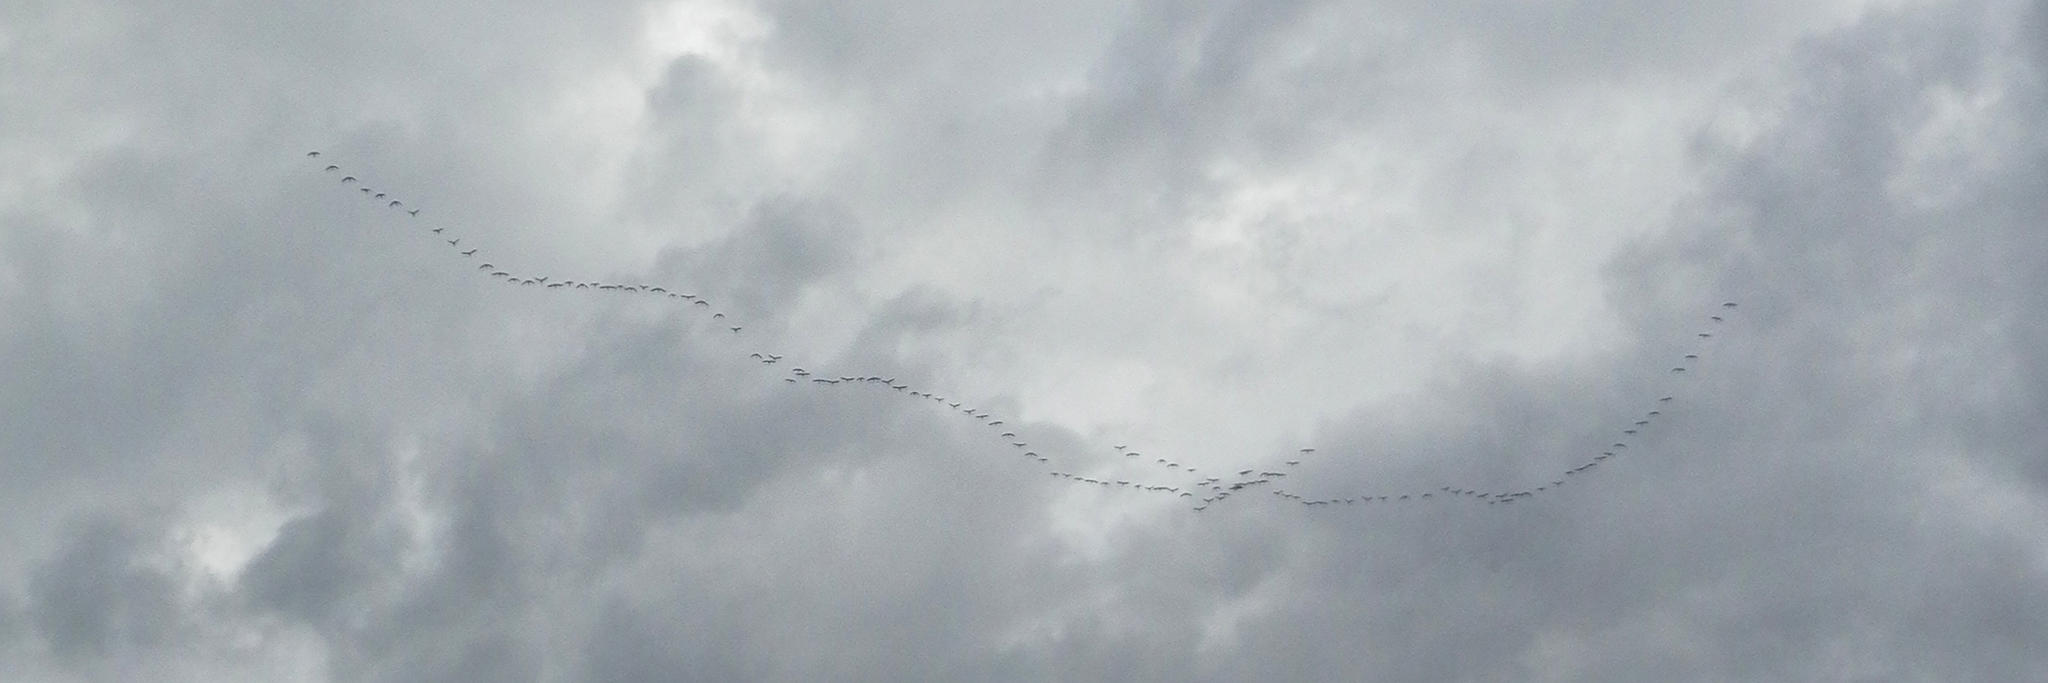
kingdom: Animalia
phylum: Chordata
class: Aves
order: Anseriformes
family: Anatidae
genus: Branta
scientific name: Branta canadensis
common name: Canada goose
